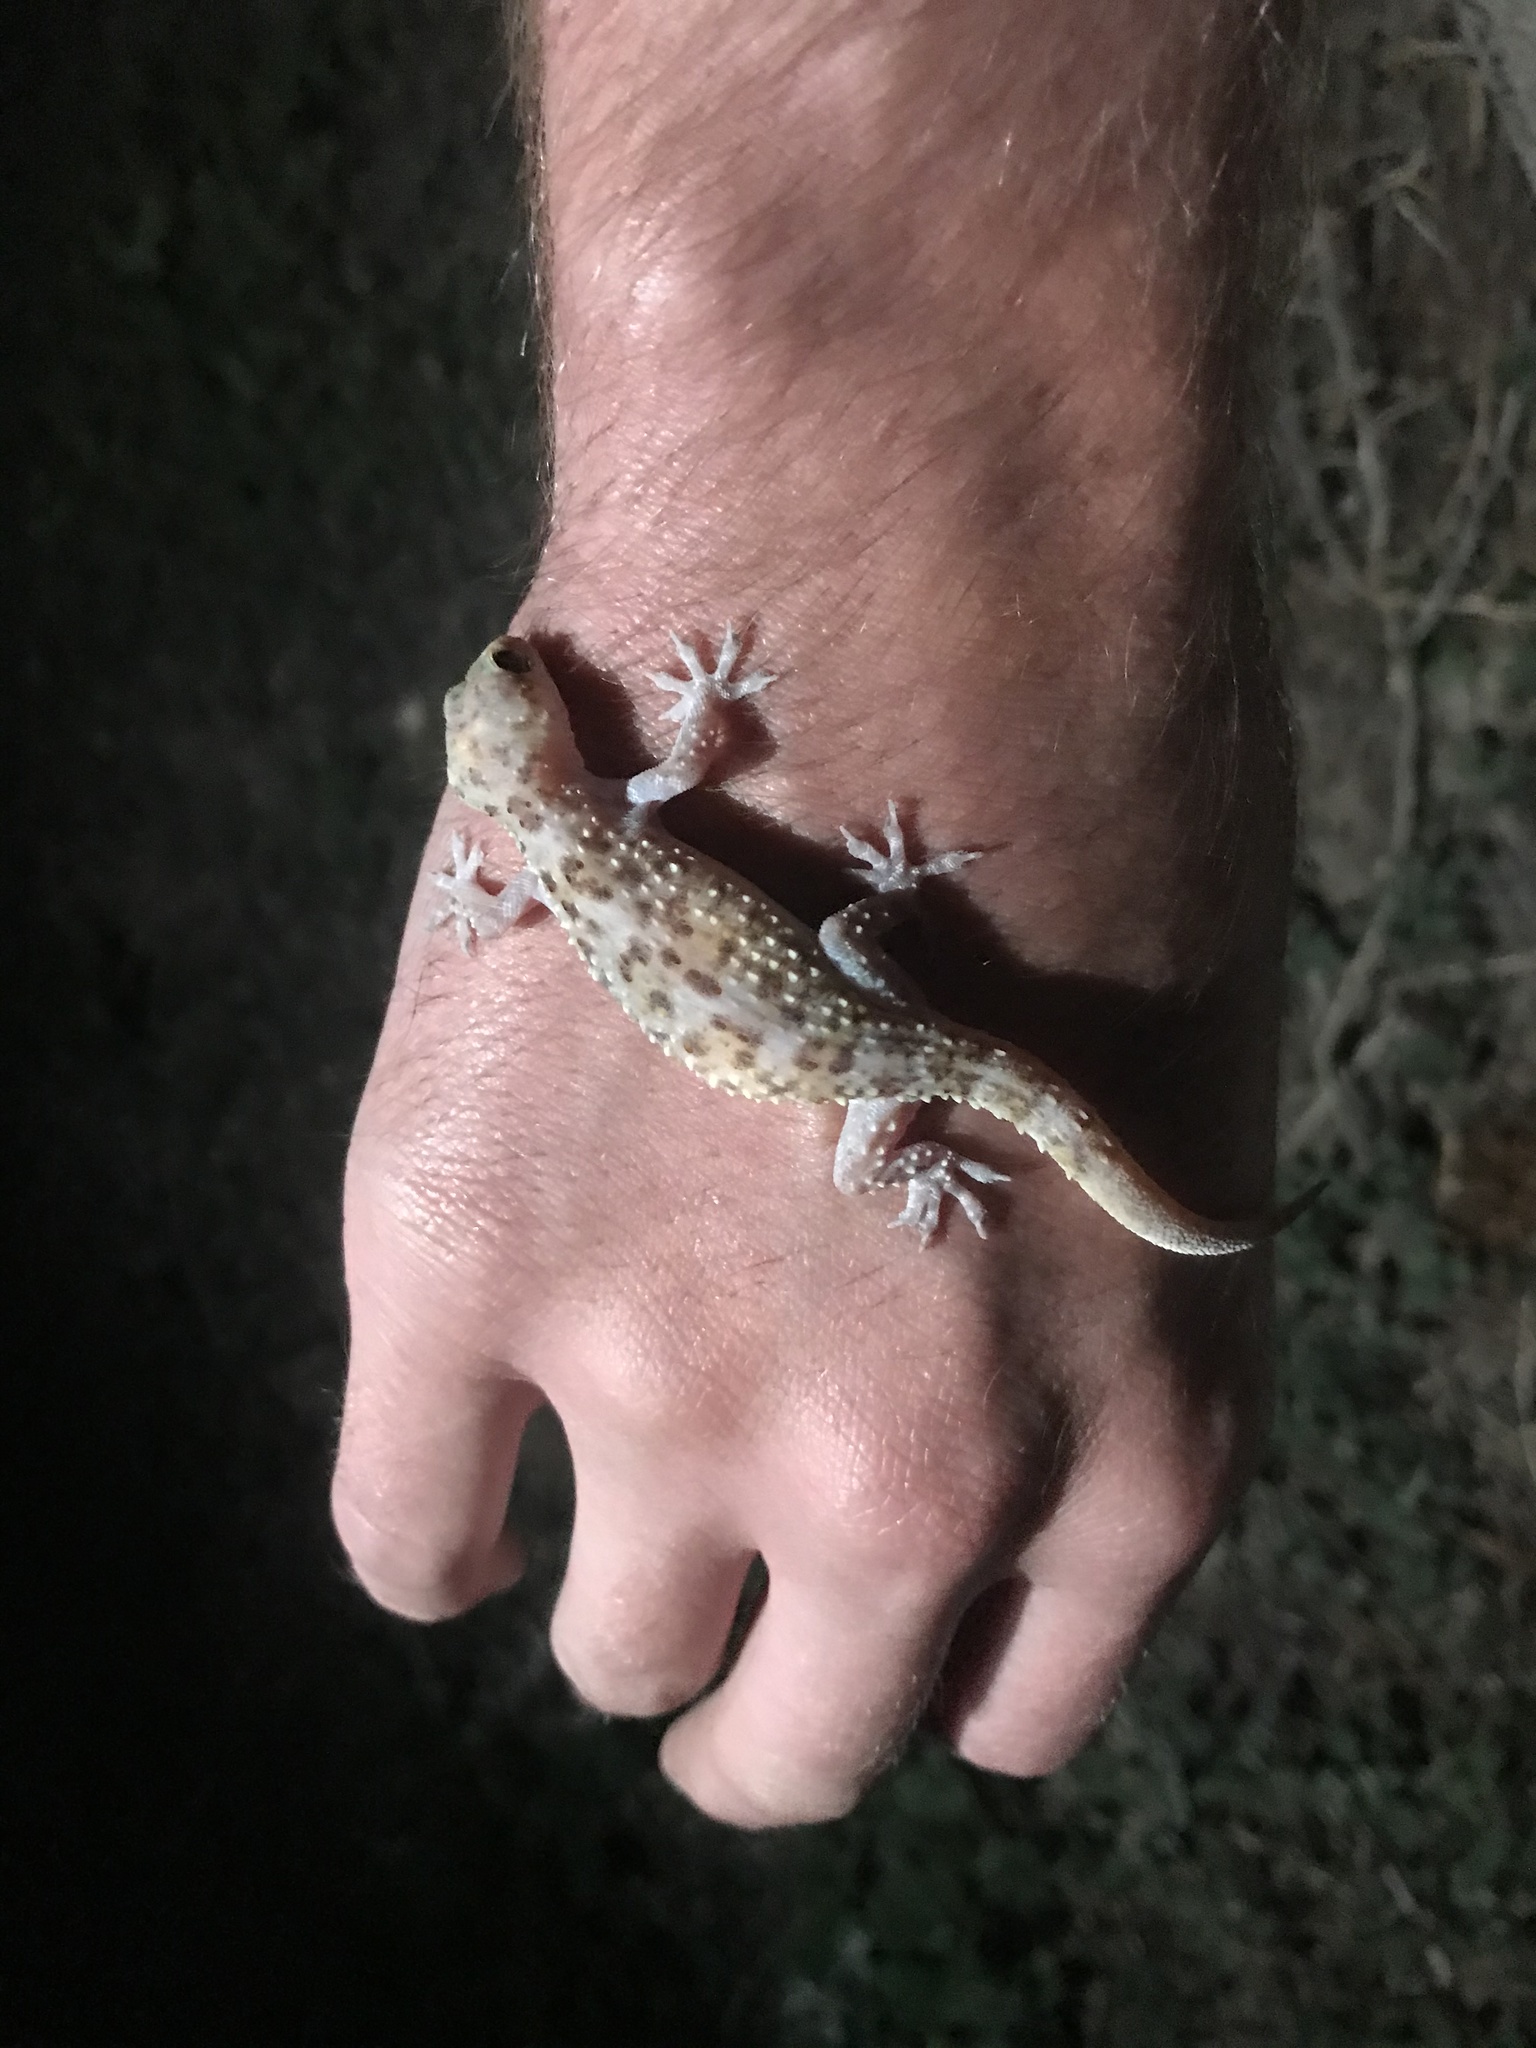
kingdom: Animalia
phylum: Chordata
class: Squamata
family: Gekkonidae
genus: Hemidactylus
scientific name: Hemidactylus turcicus
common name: Turkish gecko
